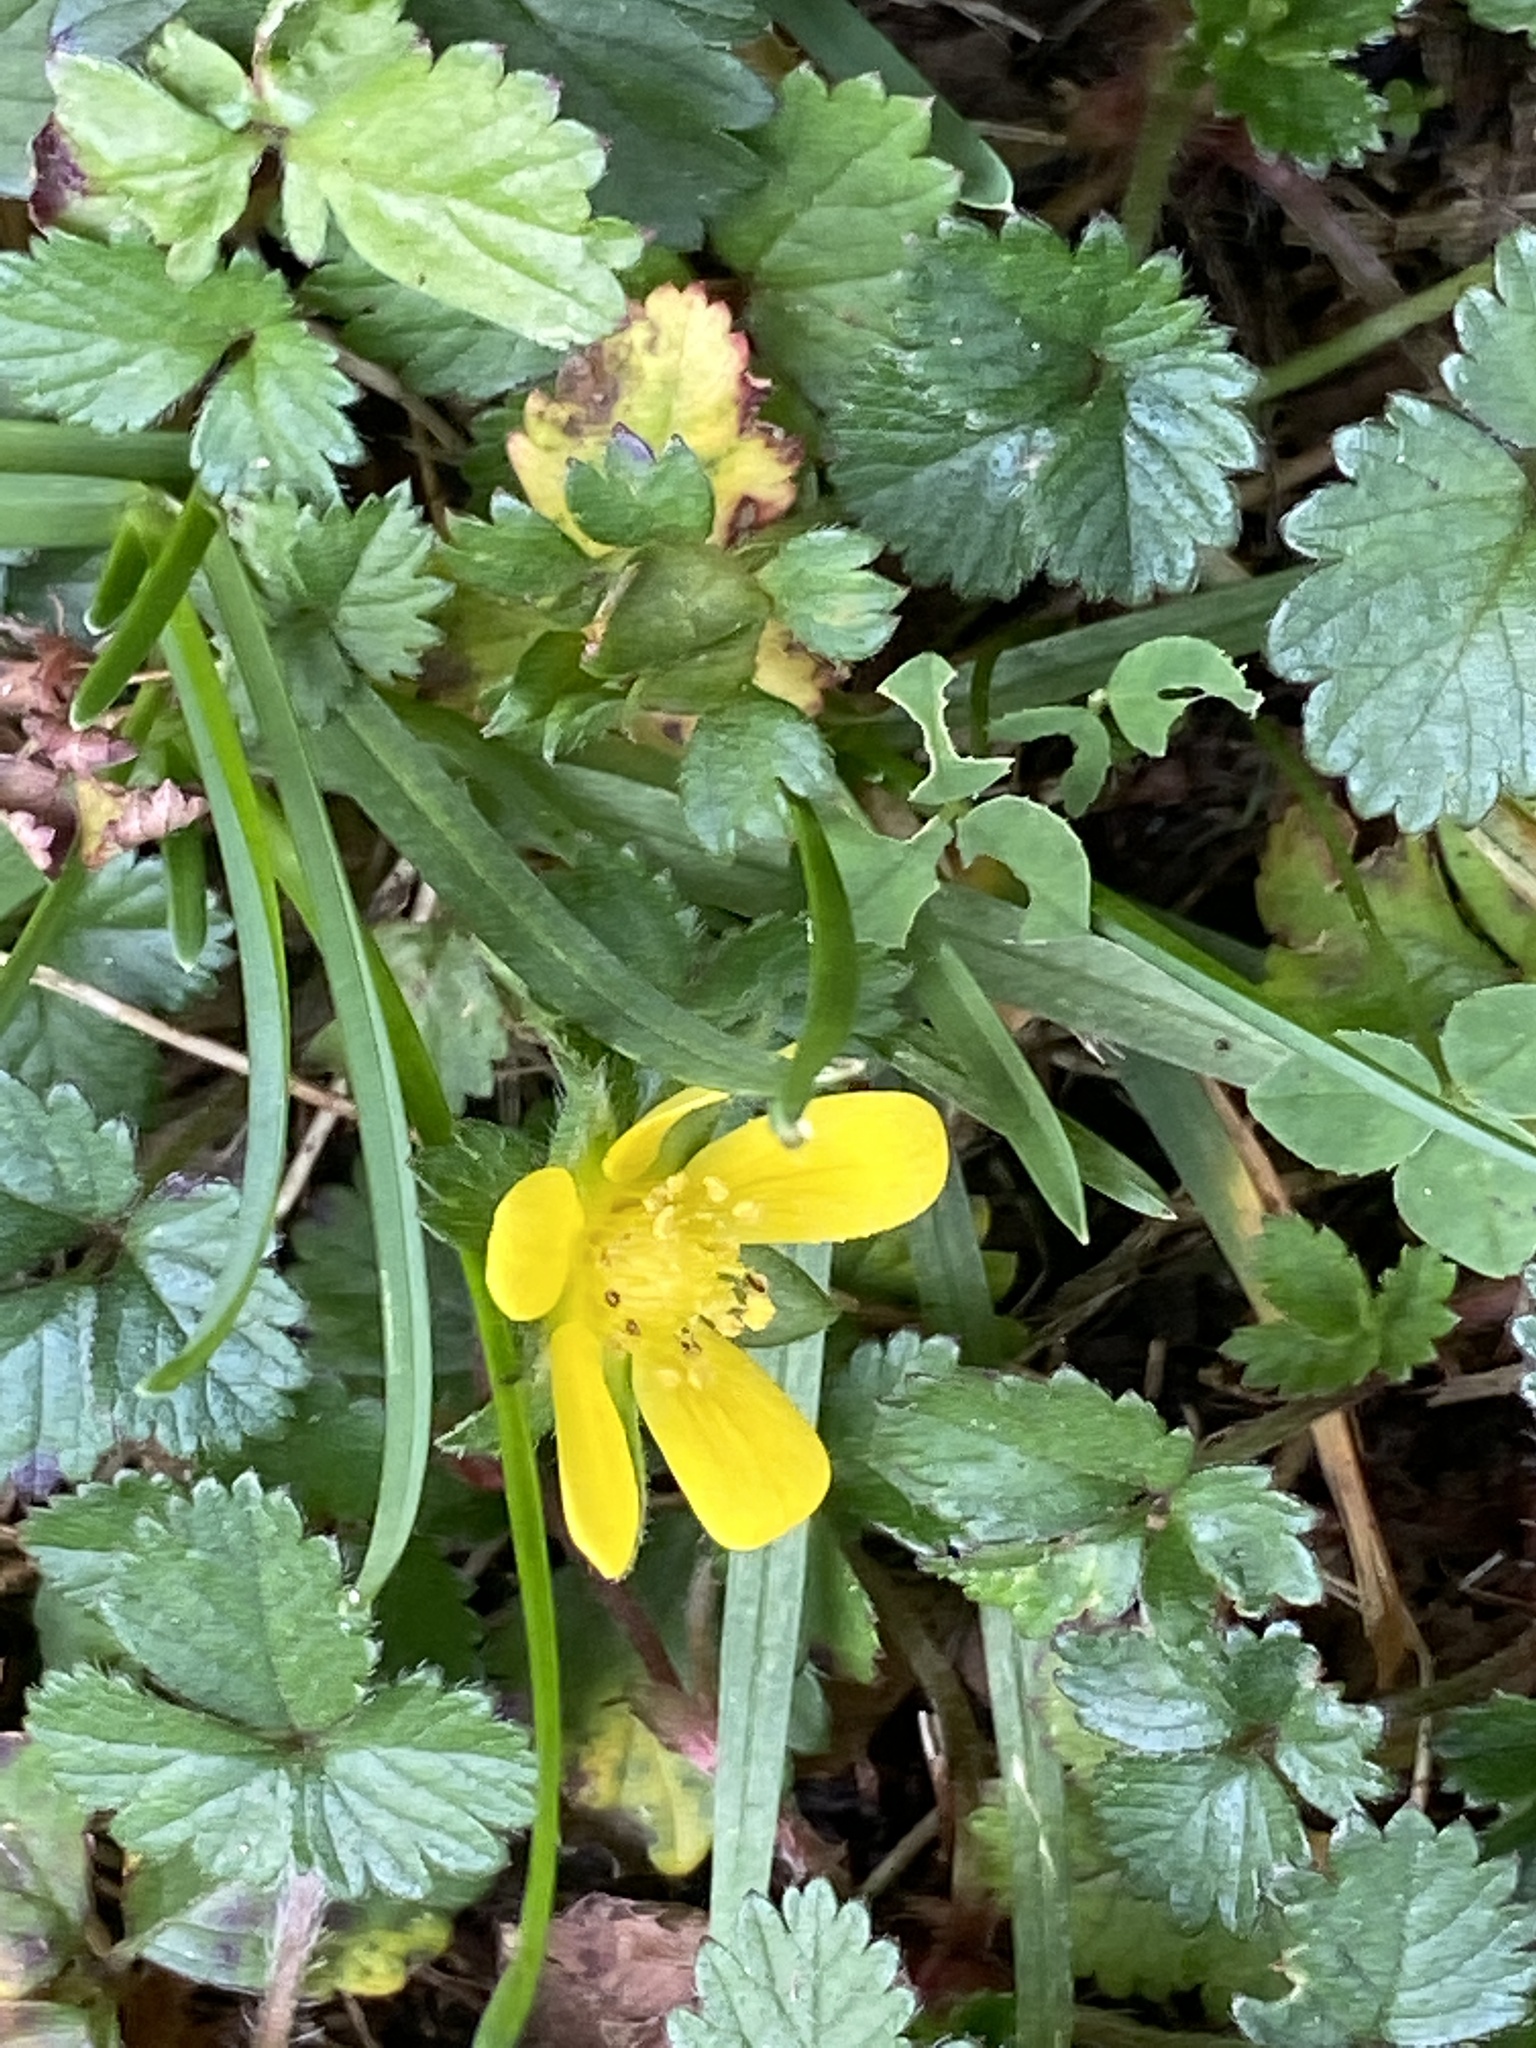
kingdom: Plantae
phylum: Tracheophyta
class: Magnoliopsida
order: Rosales
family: Rosaceae
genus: Potentilla
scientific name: Potentilla indica
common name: Yellow-flowered strawberry
